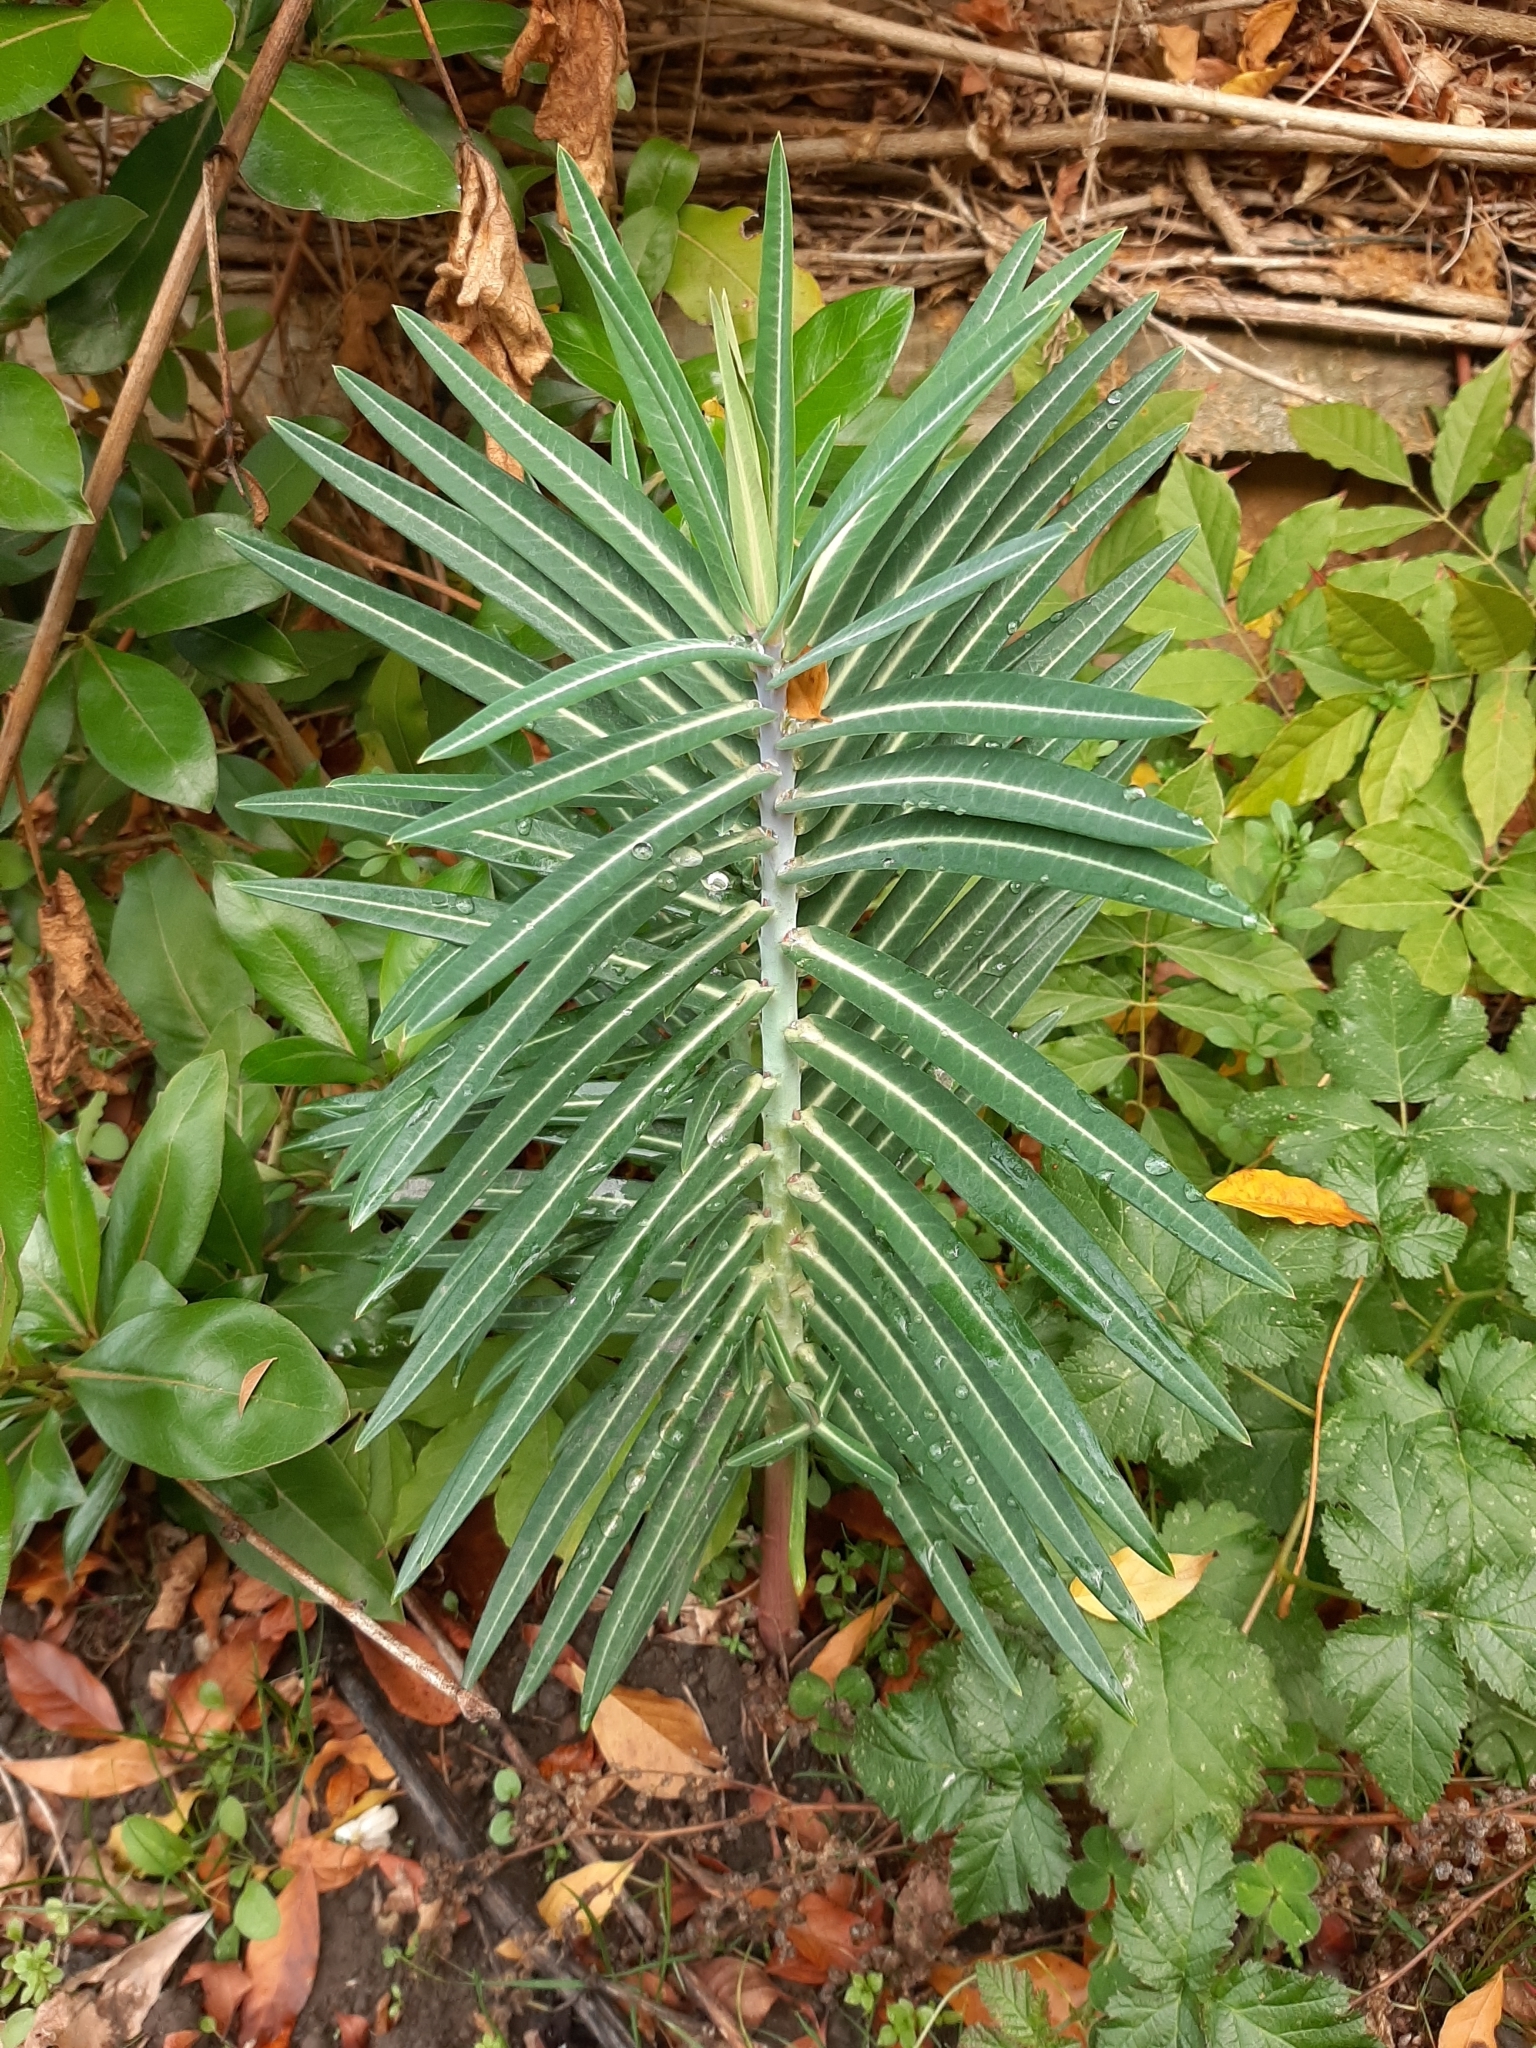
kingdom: Plantae
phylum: Tracheophyta
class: Magnoliopsida
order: Malpighiales
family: Euphorbiaceae
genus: Euphorbia
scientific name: Euphorbia lathyris
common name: Caper spurge
